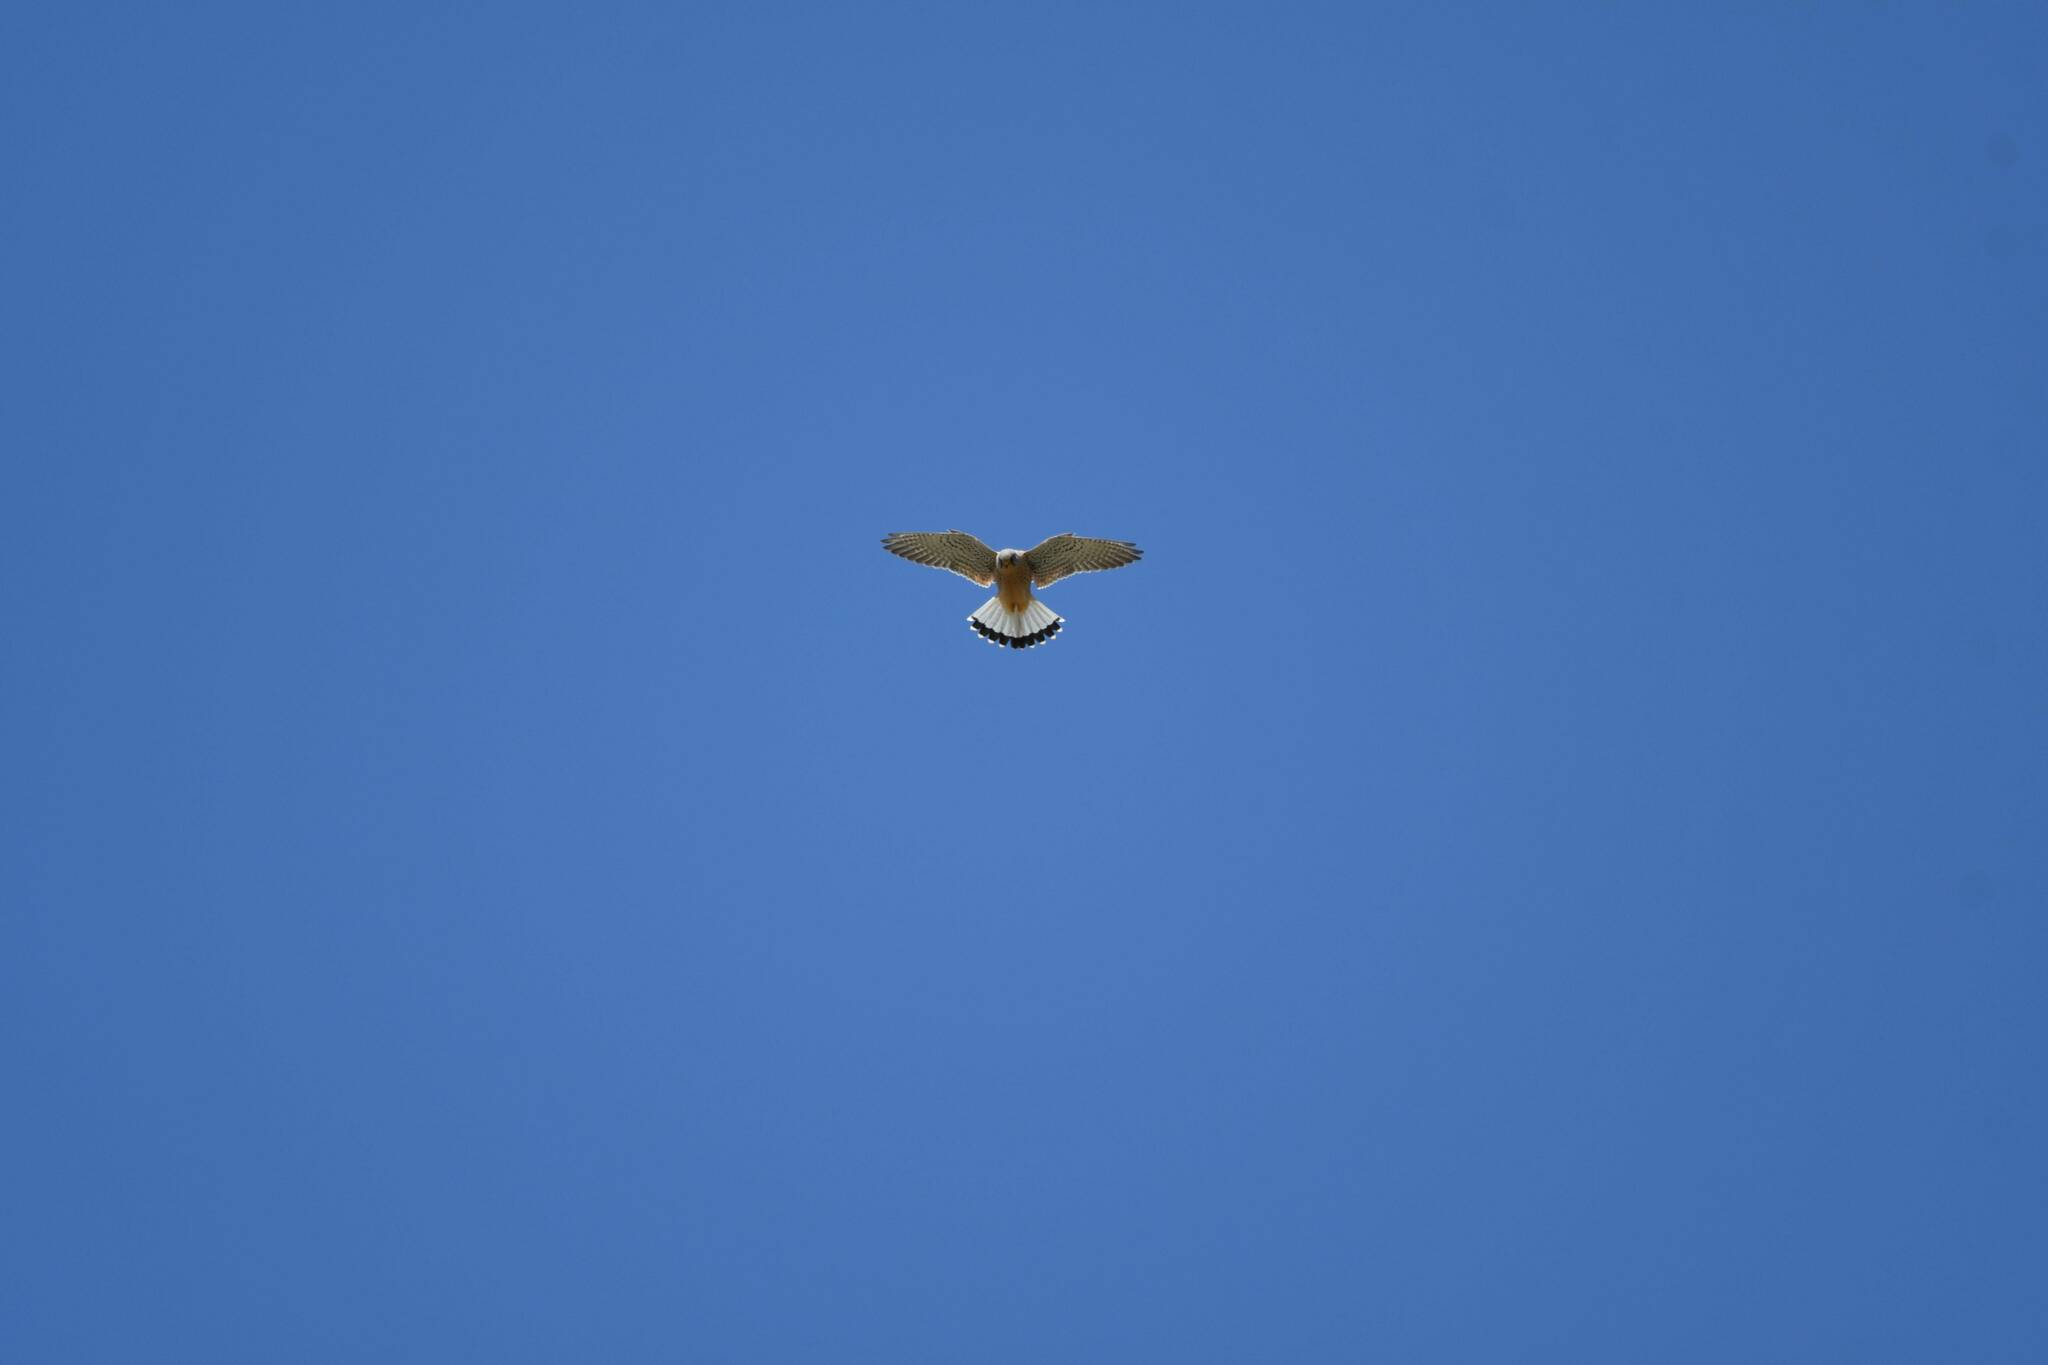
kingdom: Animalia
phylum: Chordata
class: Aves
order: Falconiformes
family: Falconidae
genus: Falco
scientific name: Falco naumanni
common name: Lesser kestrel
